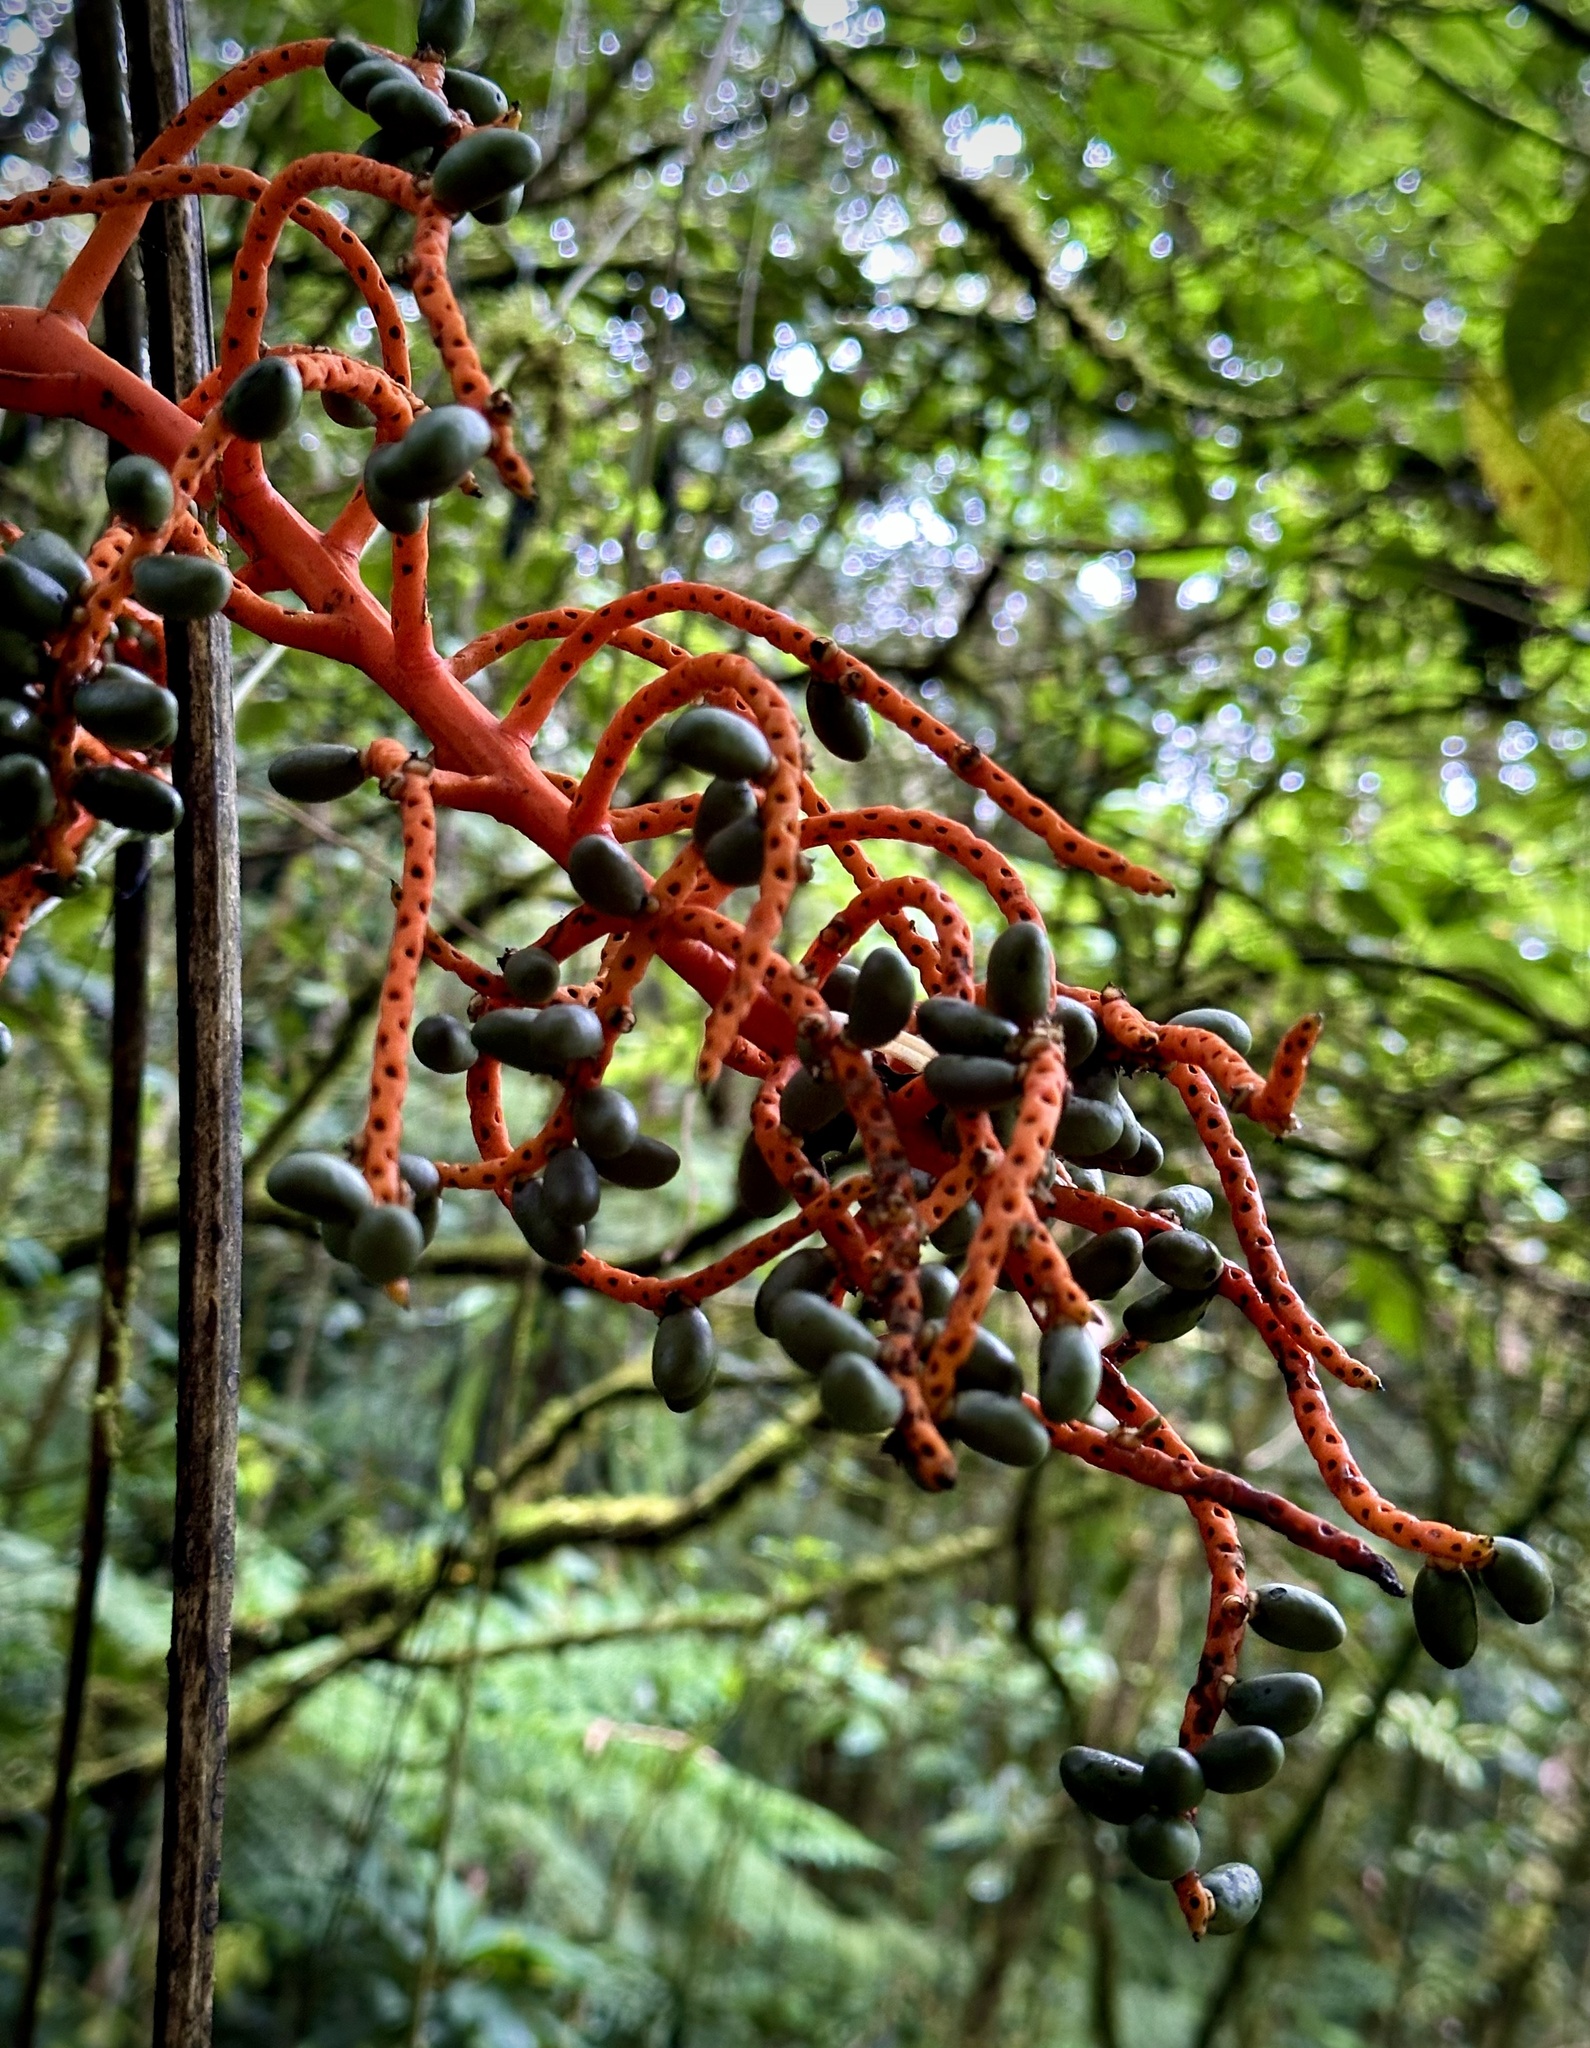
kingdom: Plantae
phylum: Tracheophyta
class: Liliopsida
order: Arecales
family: Arecaceae
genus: Chamaedorea
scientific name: Chamaedorea tepejilote
